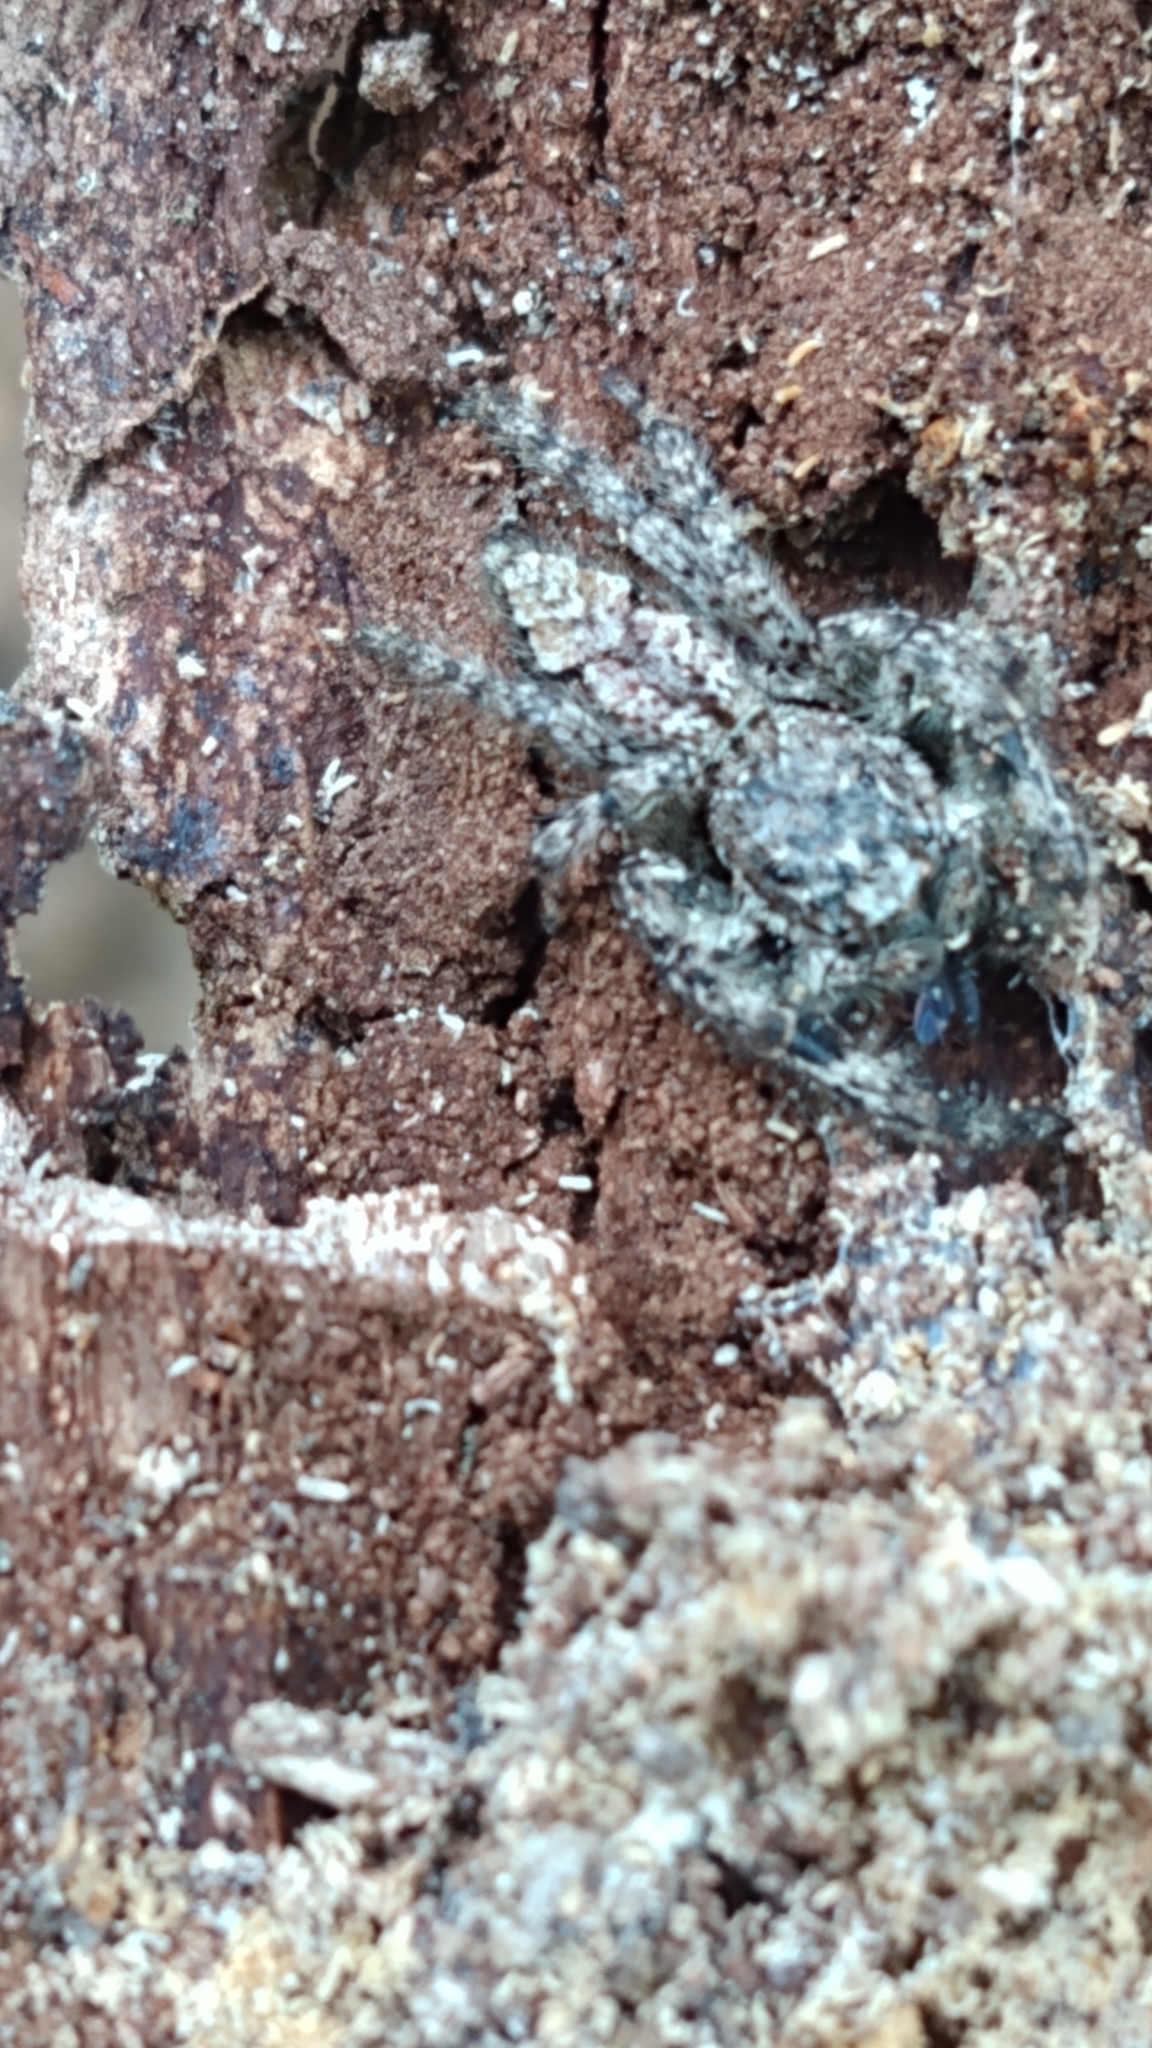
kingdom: Animalia
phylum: Arthropoda
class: Arachnida
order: Araneae
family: Salticidae
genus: Platycryptus
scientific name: Platycryptus undatus
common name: Tan jumping spider
